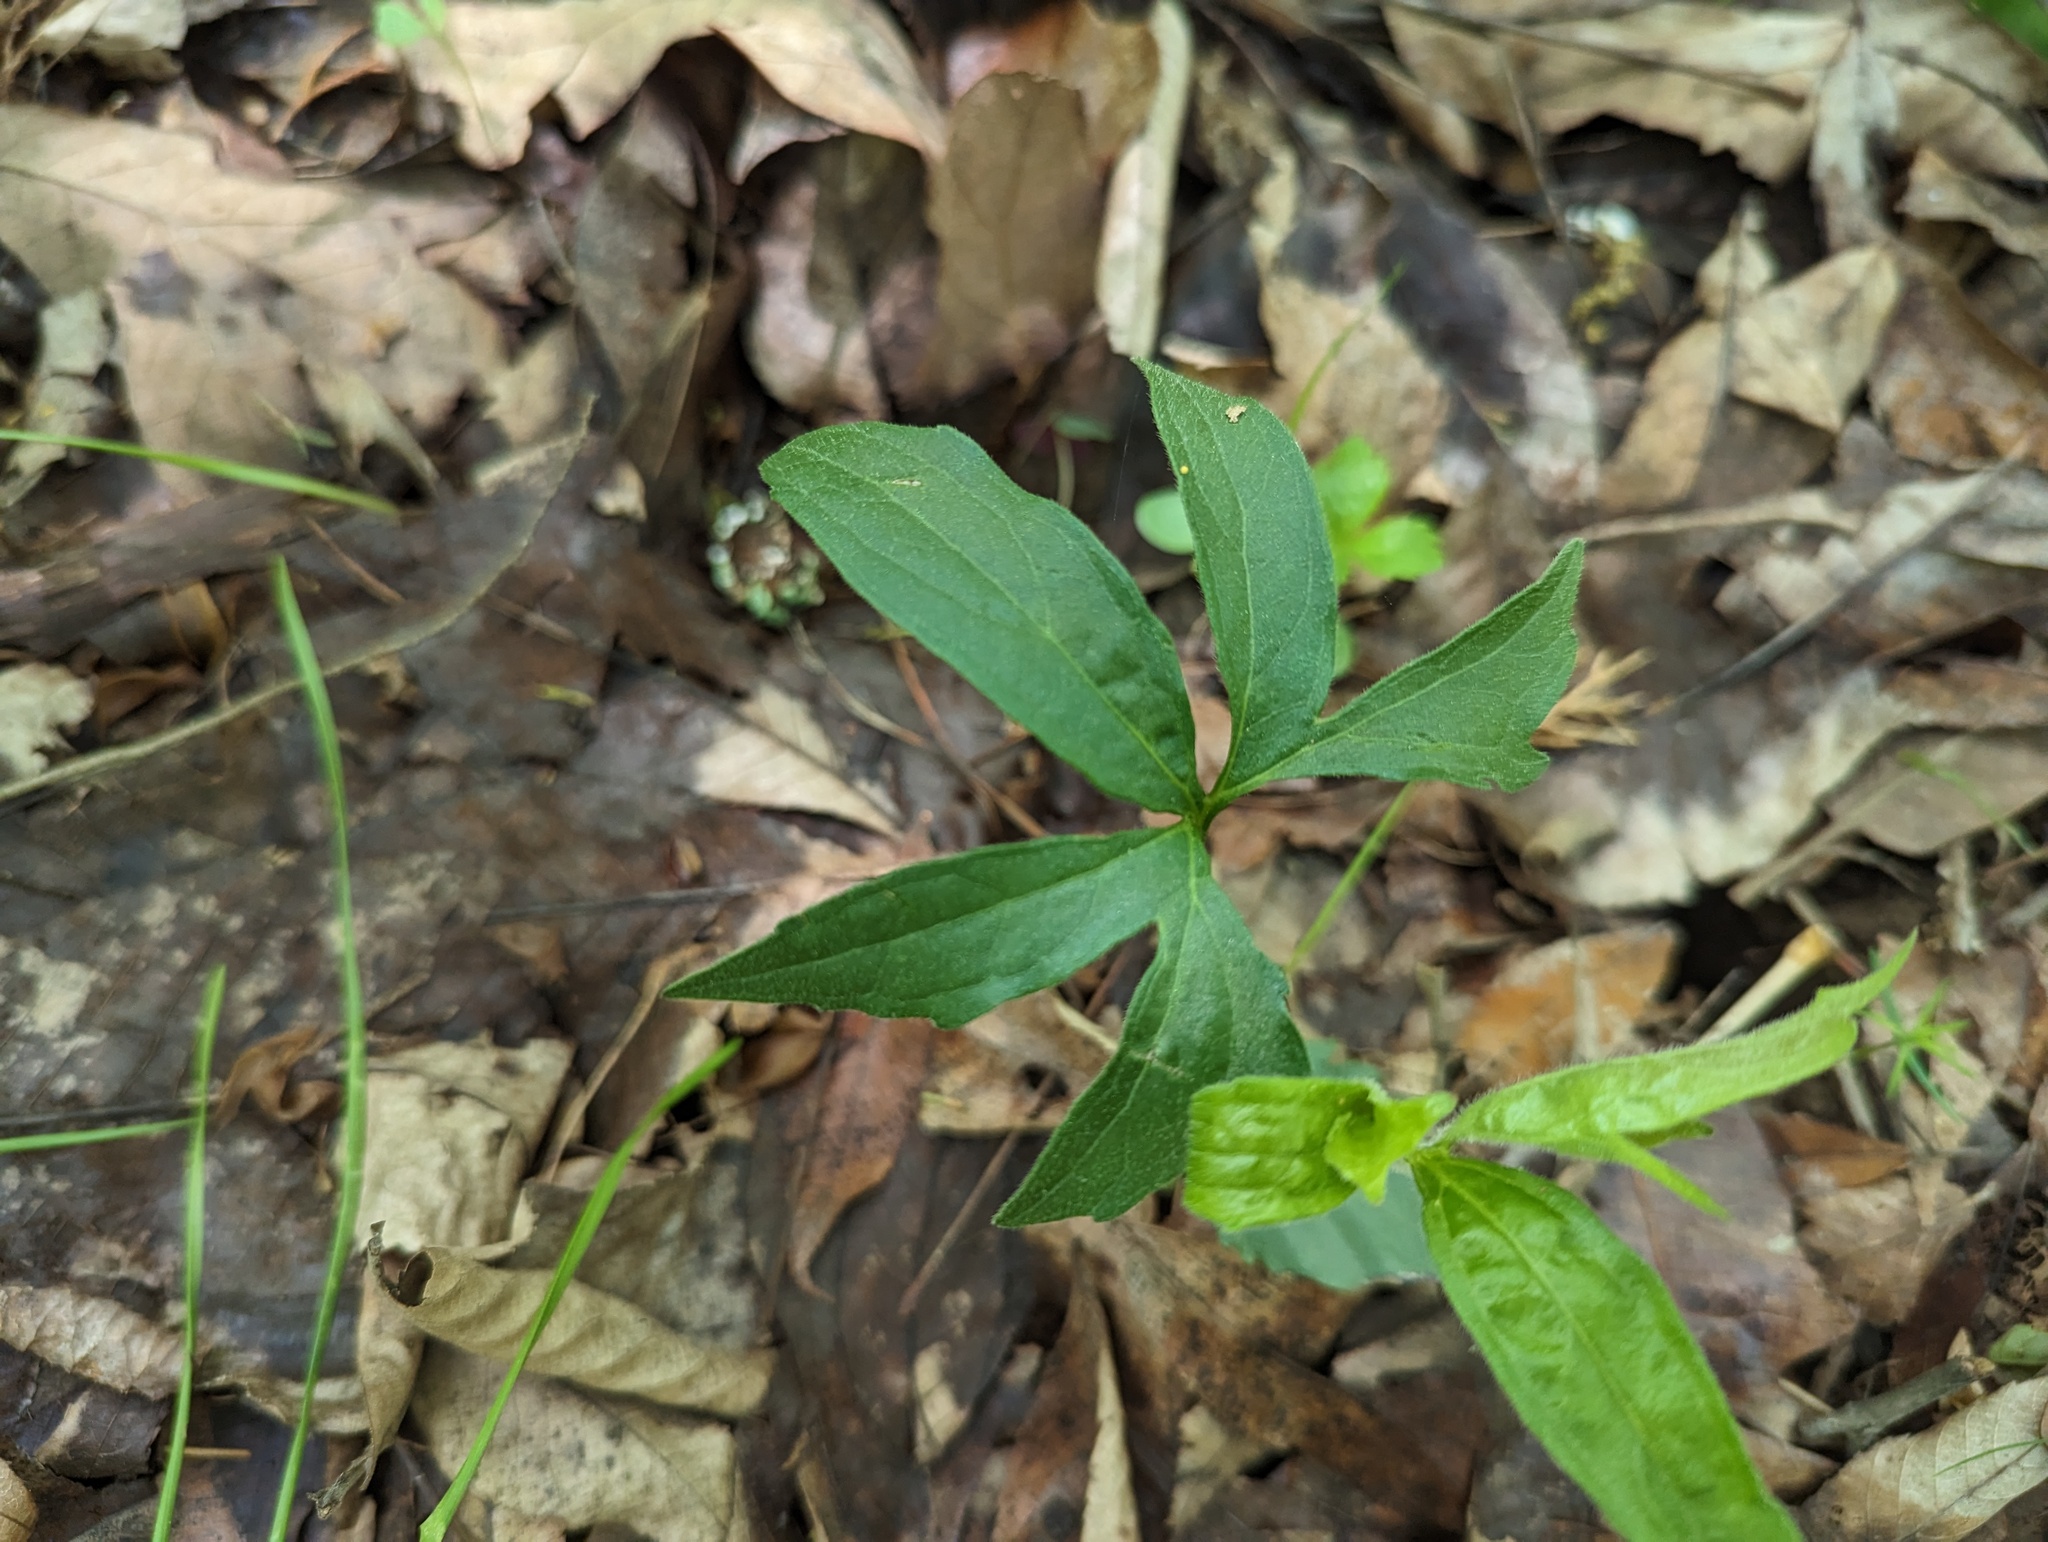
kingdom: Plantae
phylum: Tracheophyta
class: Magnoliopsida
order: Malpighiales
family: Violaceae
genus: Viola
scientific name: Viola palmata
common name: Early blue violet
